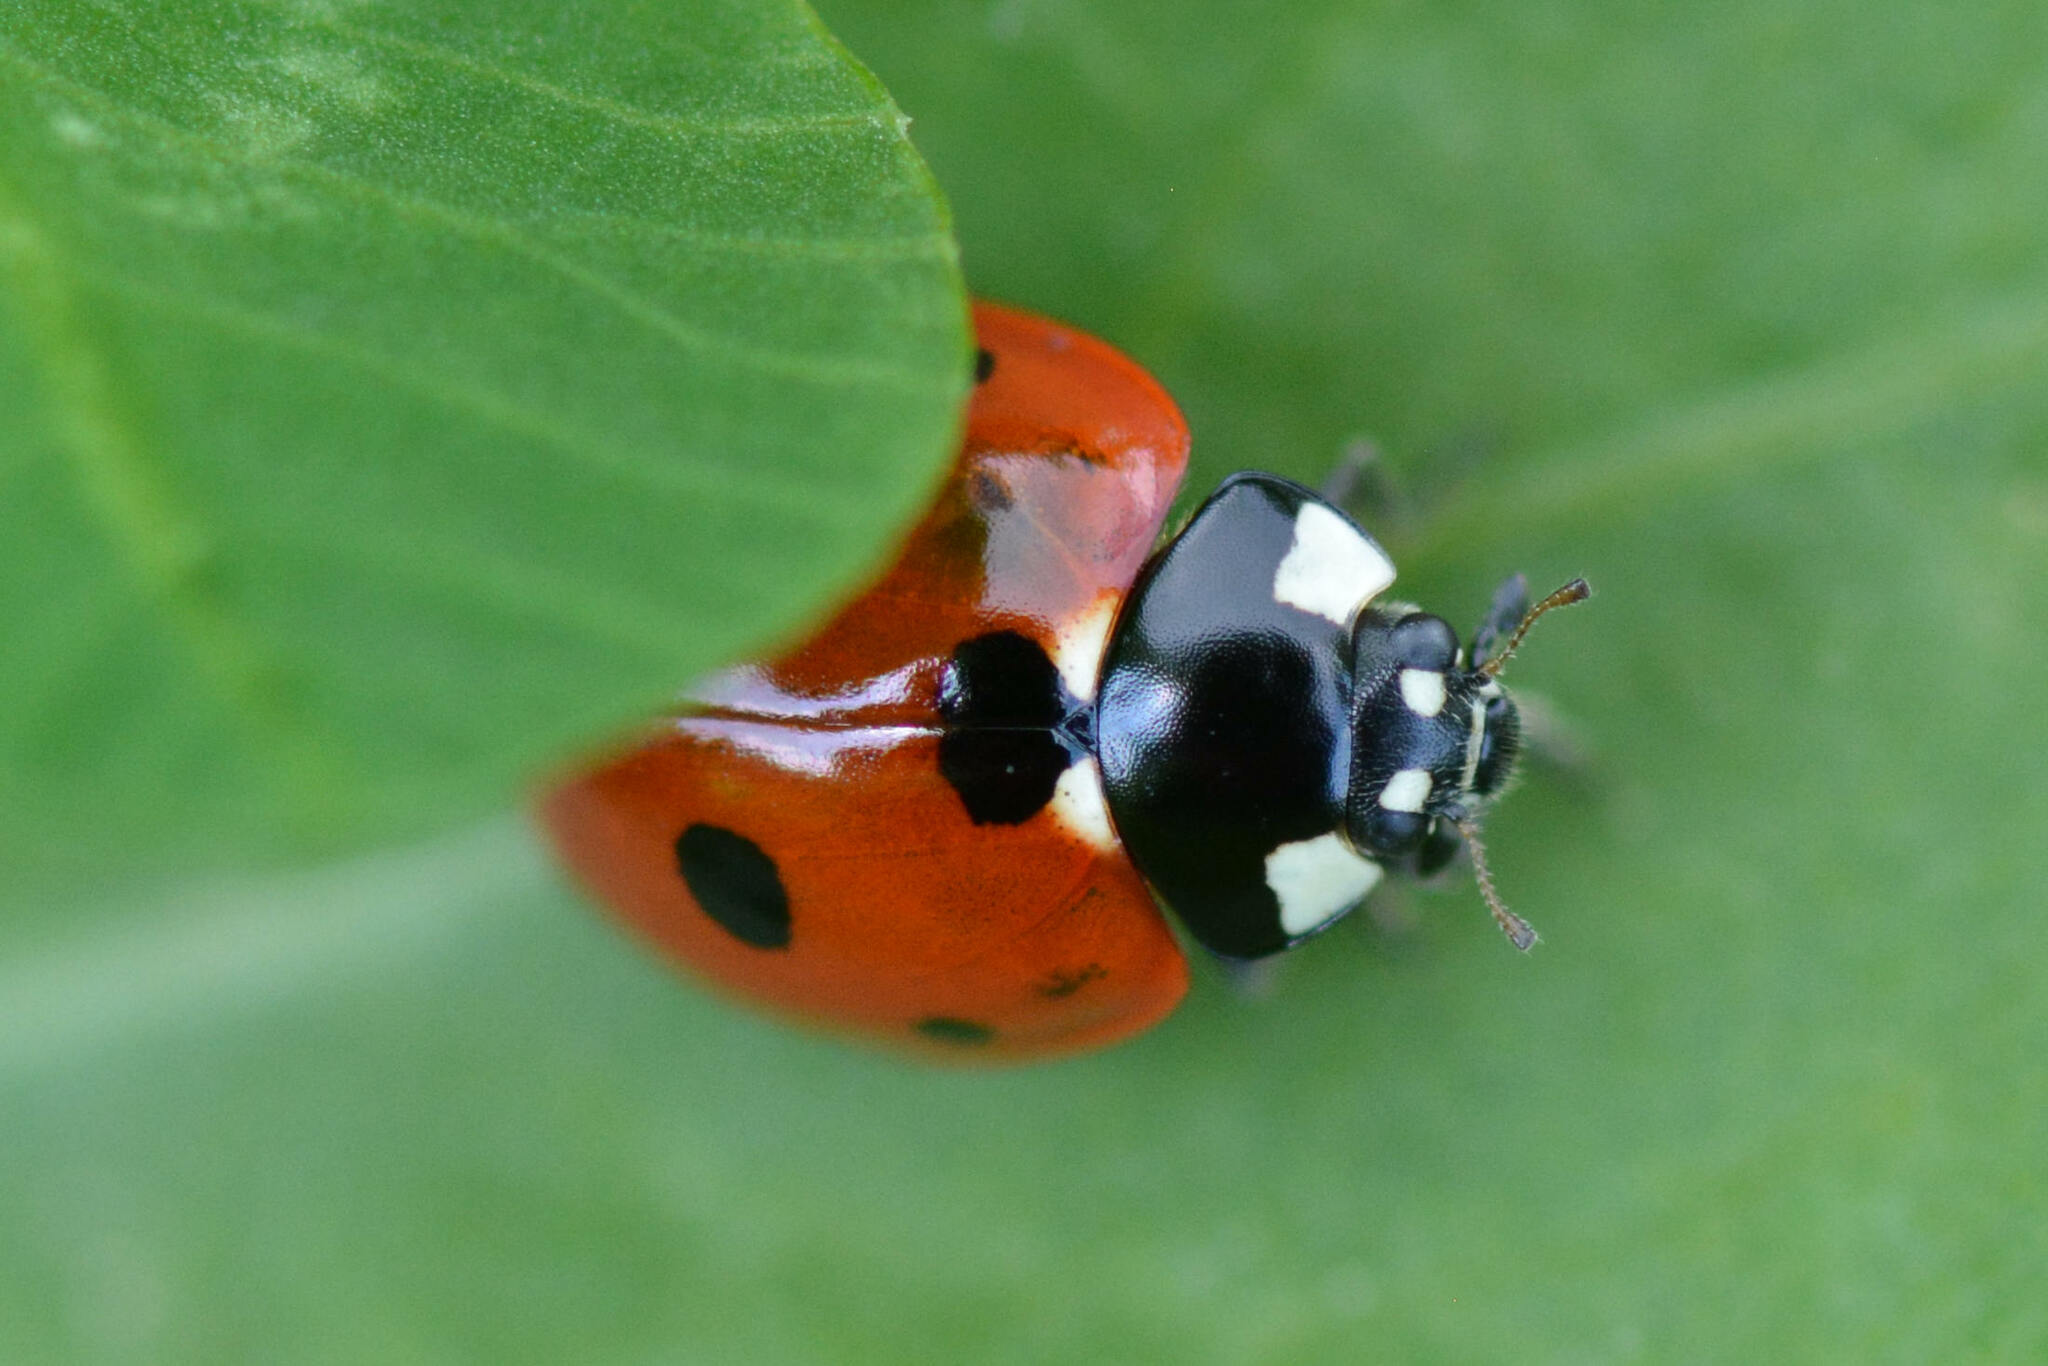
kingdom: Animalia
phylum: Arthropoda
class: Insecta
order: Coleoptera
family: Coccinellidae
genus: Coccinella
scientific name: Coccinella septempunctata
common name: Sevenspotted lady beetle
